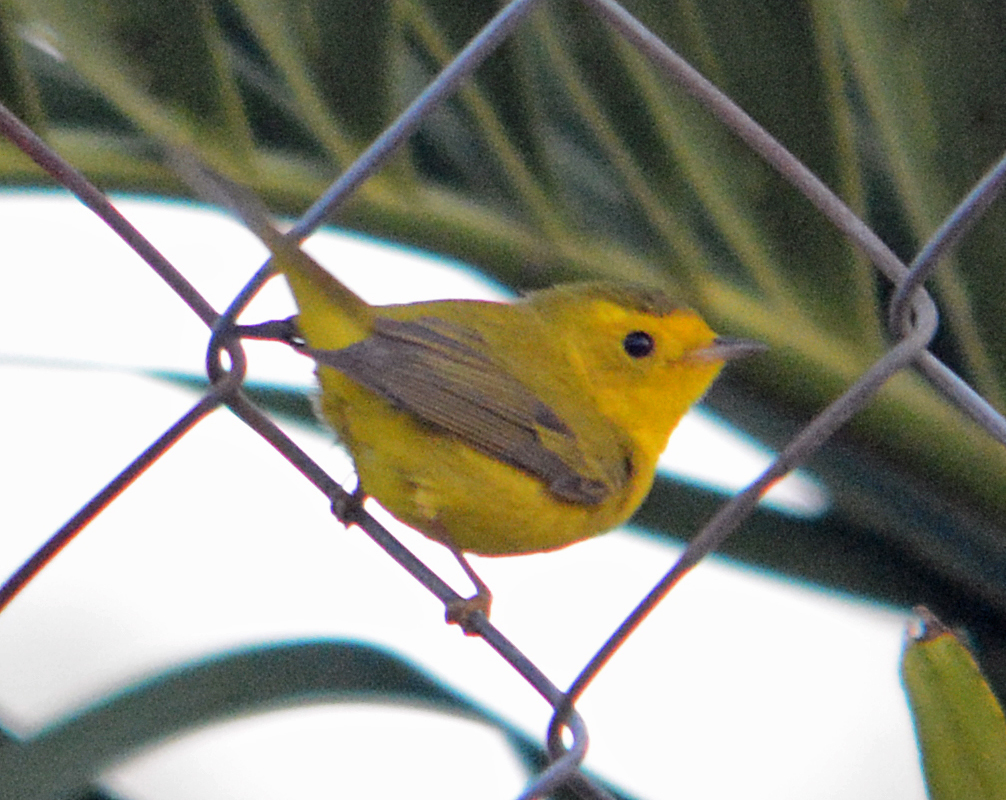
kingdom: Animalia
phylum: Chordata
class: Aves
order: Passeriformes
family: Parulidae
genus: Cardellina
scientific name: Cardellina pusilla
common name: Wilson's warbler
